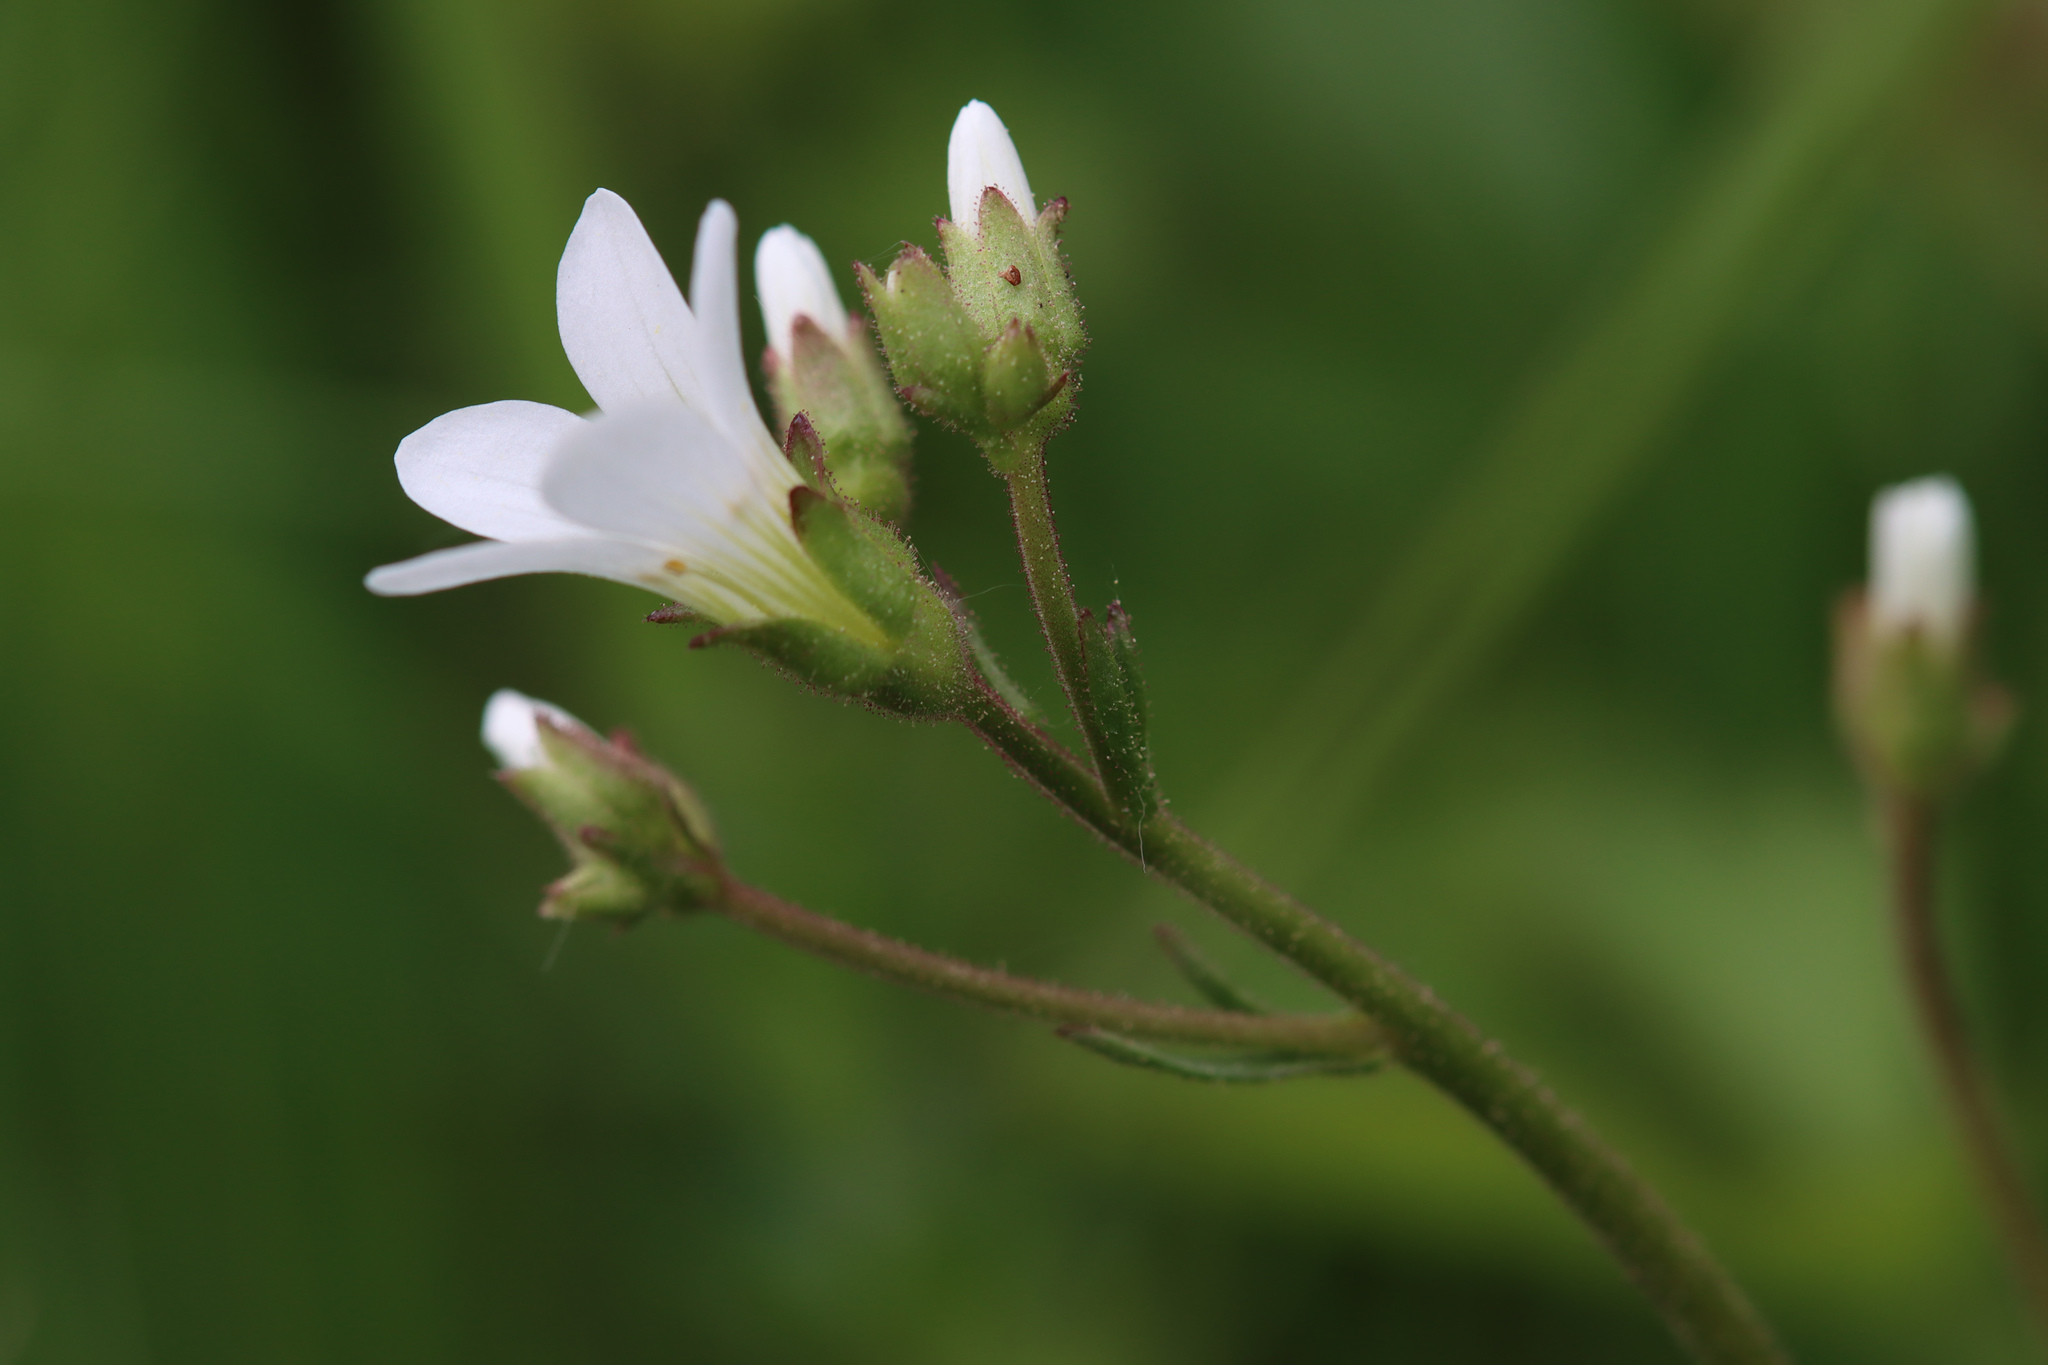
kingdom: Plantae
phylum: Tracheophyta
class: Magnoliopsida
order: Saxifragales
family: Saxifragaceae
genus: Saxifraga
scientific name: Saxifraga granulata
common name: Meadow saxifrage
